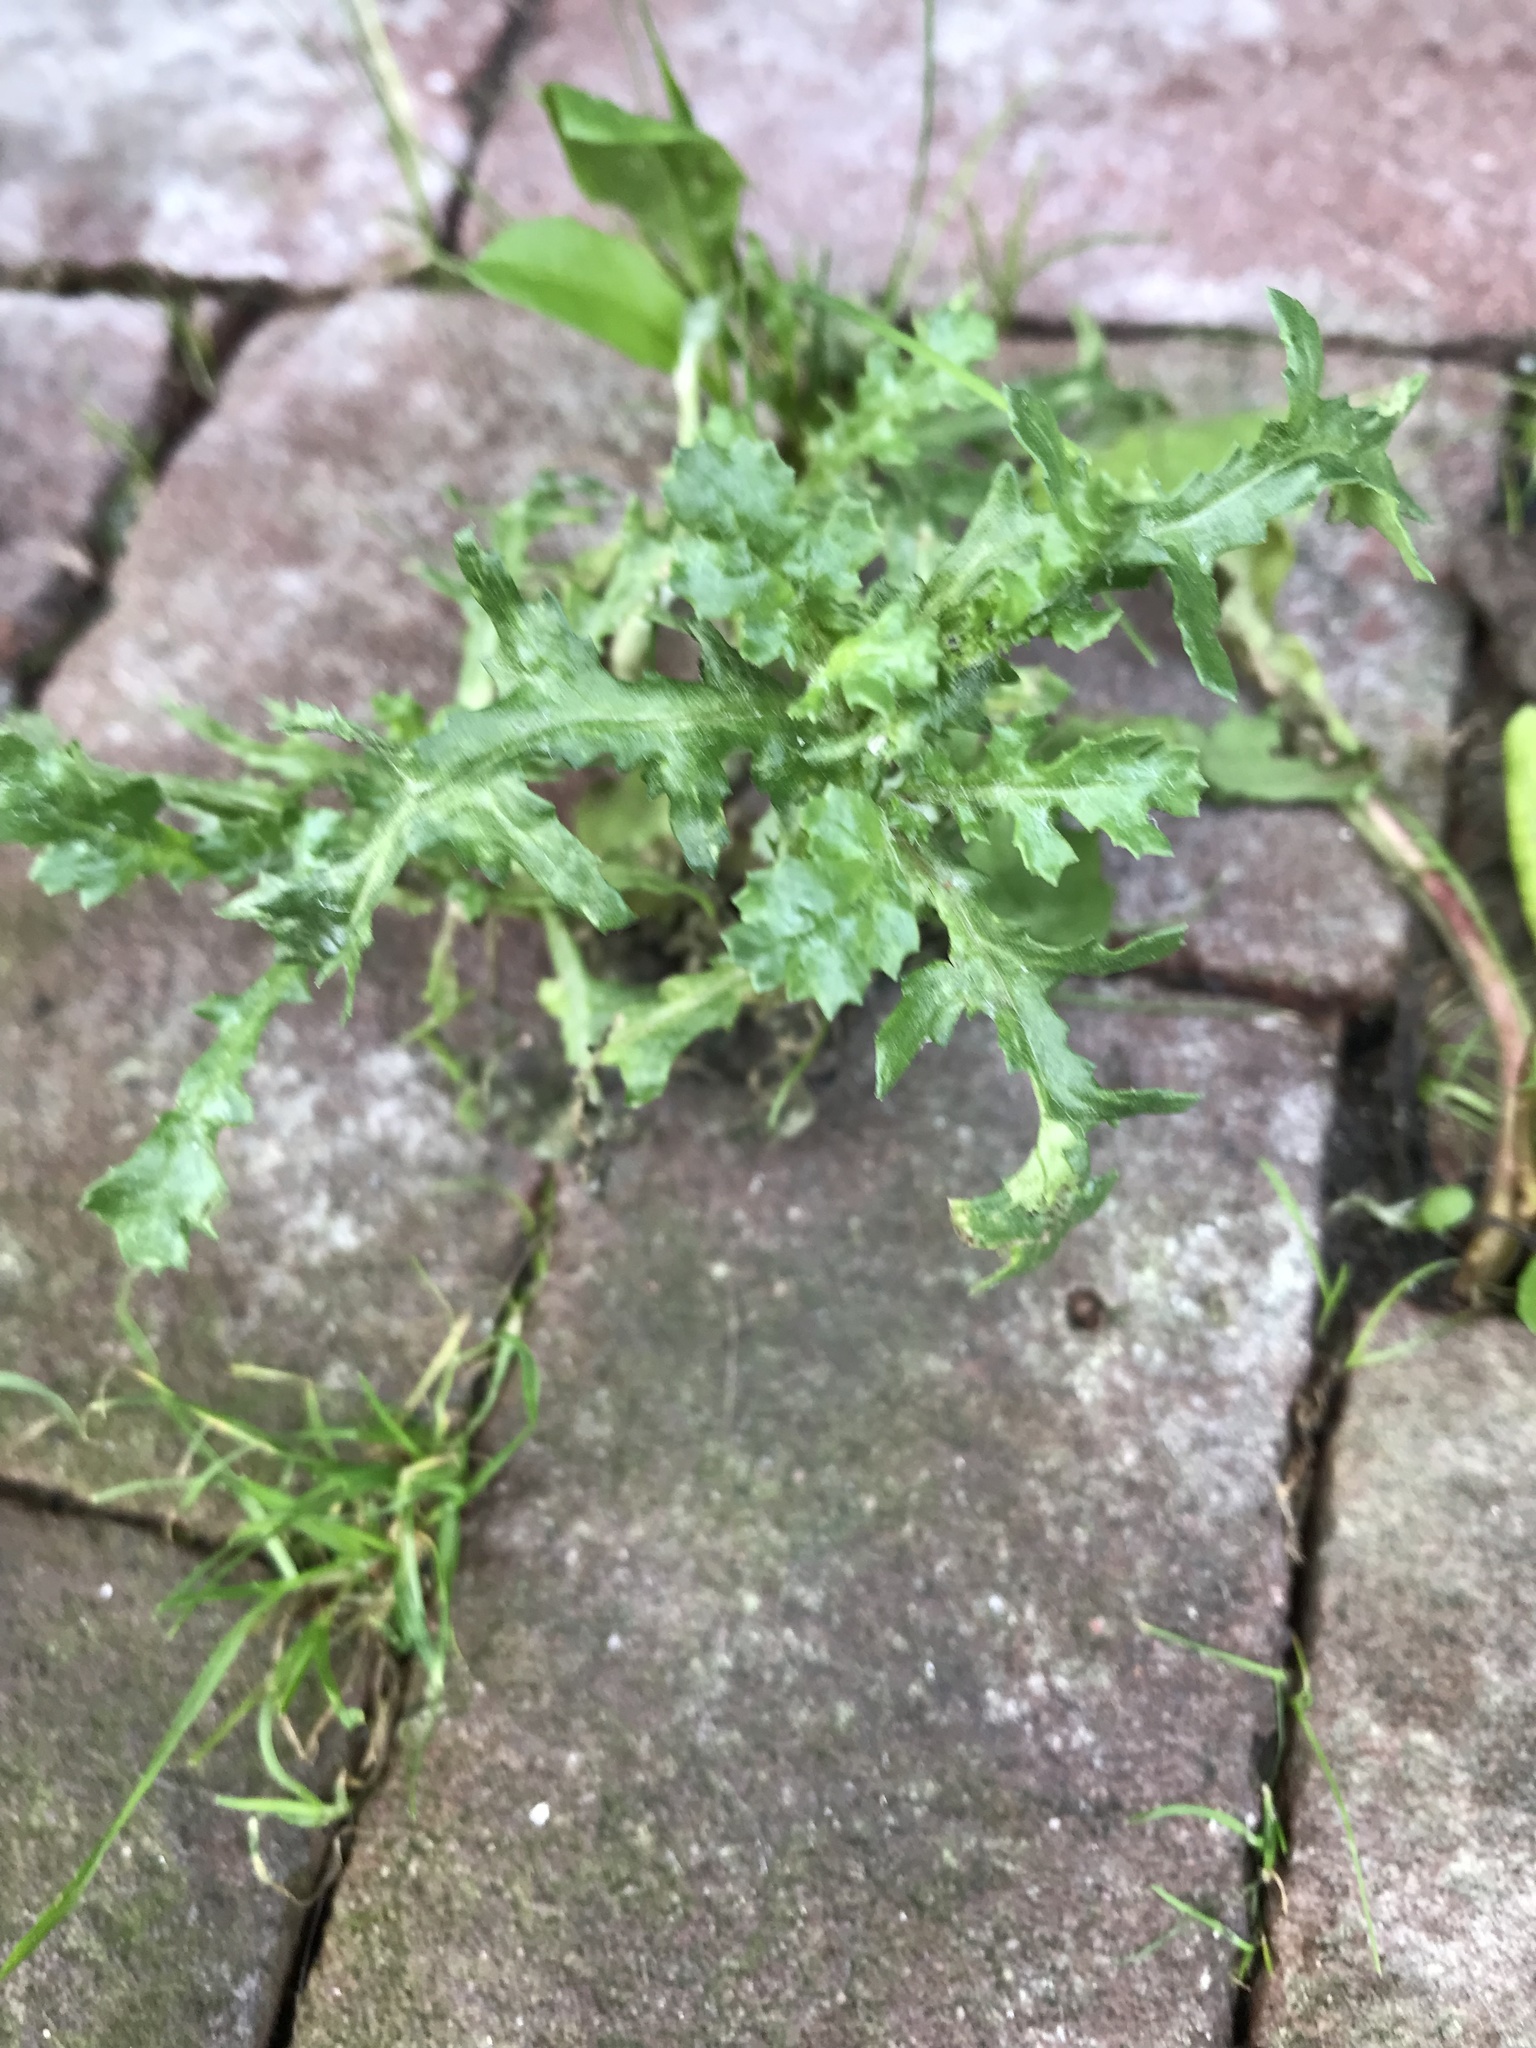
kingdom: Plantae
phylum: Tracheophyta
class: Magnoliopsida
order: Asterales
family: Asteraceae
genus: Senecio
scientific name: Senecio vulgaris
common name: Old-man-in-the-spring
